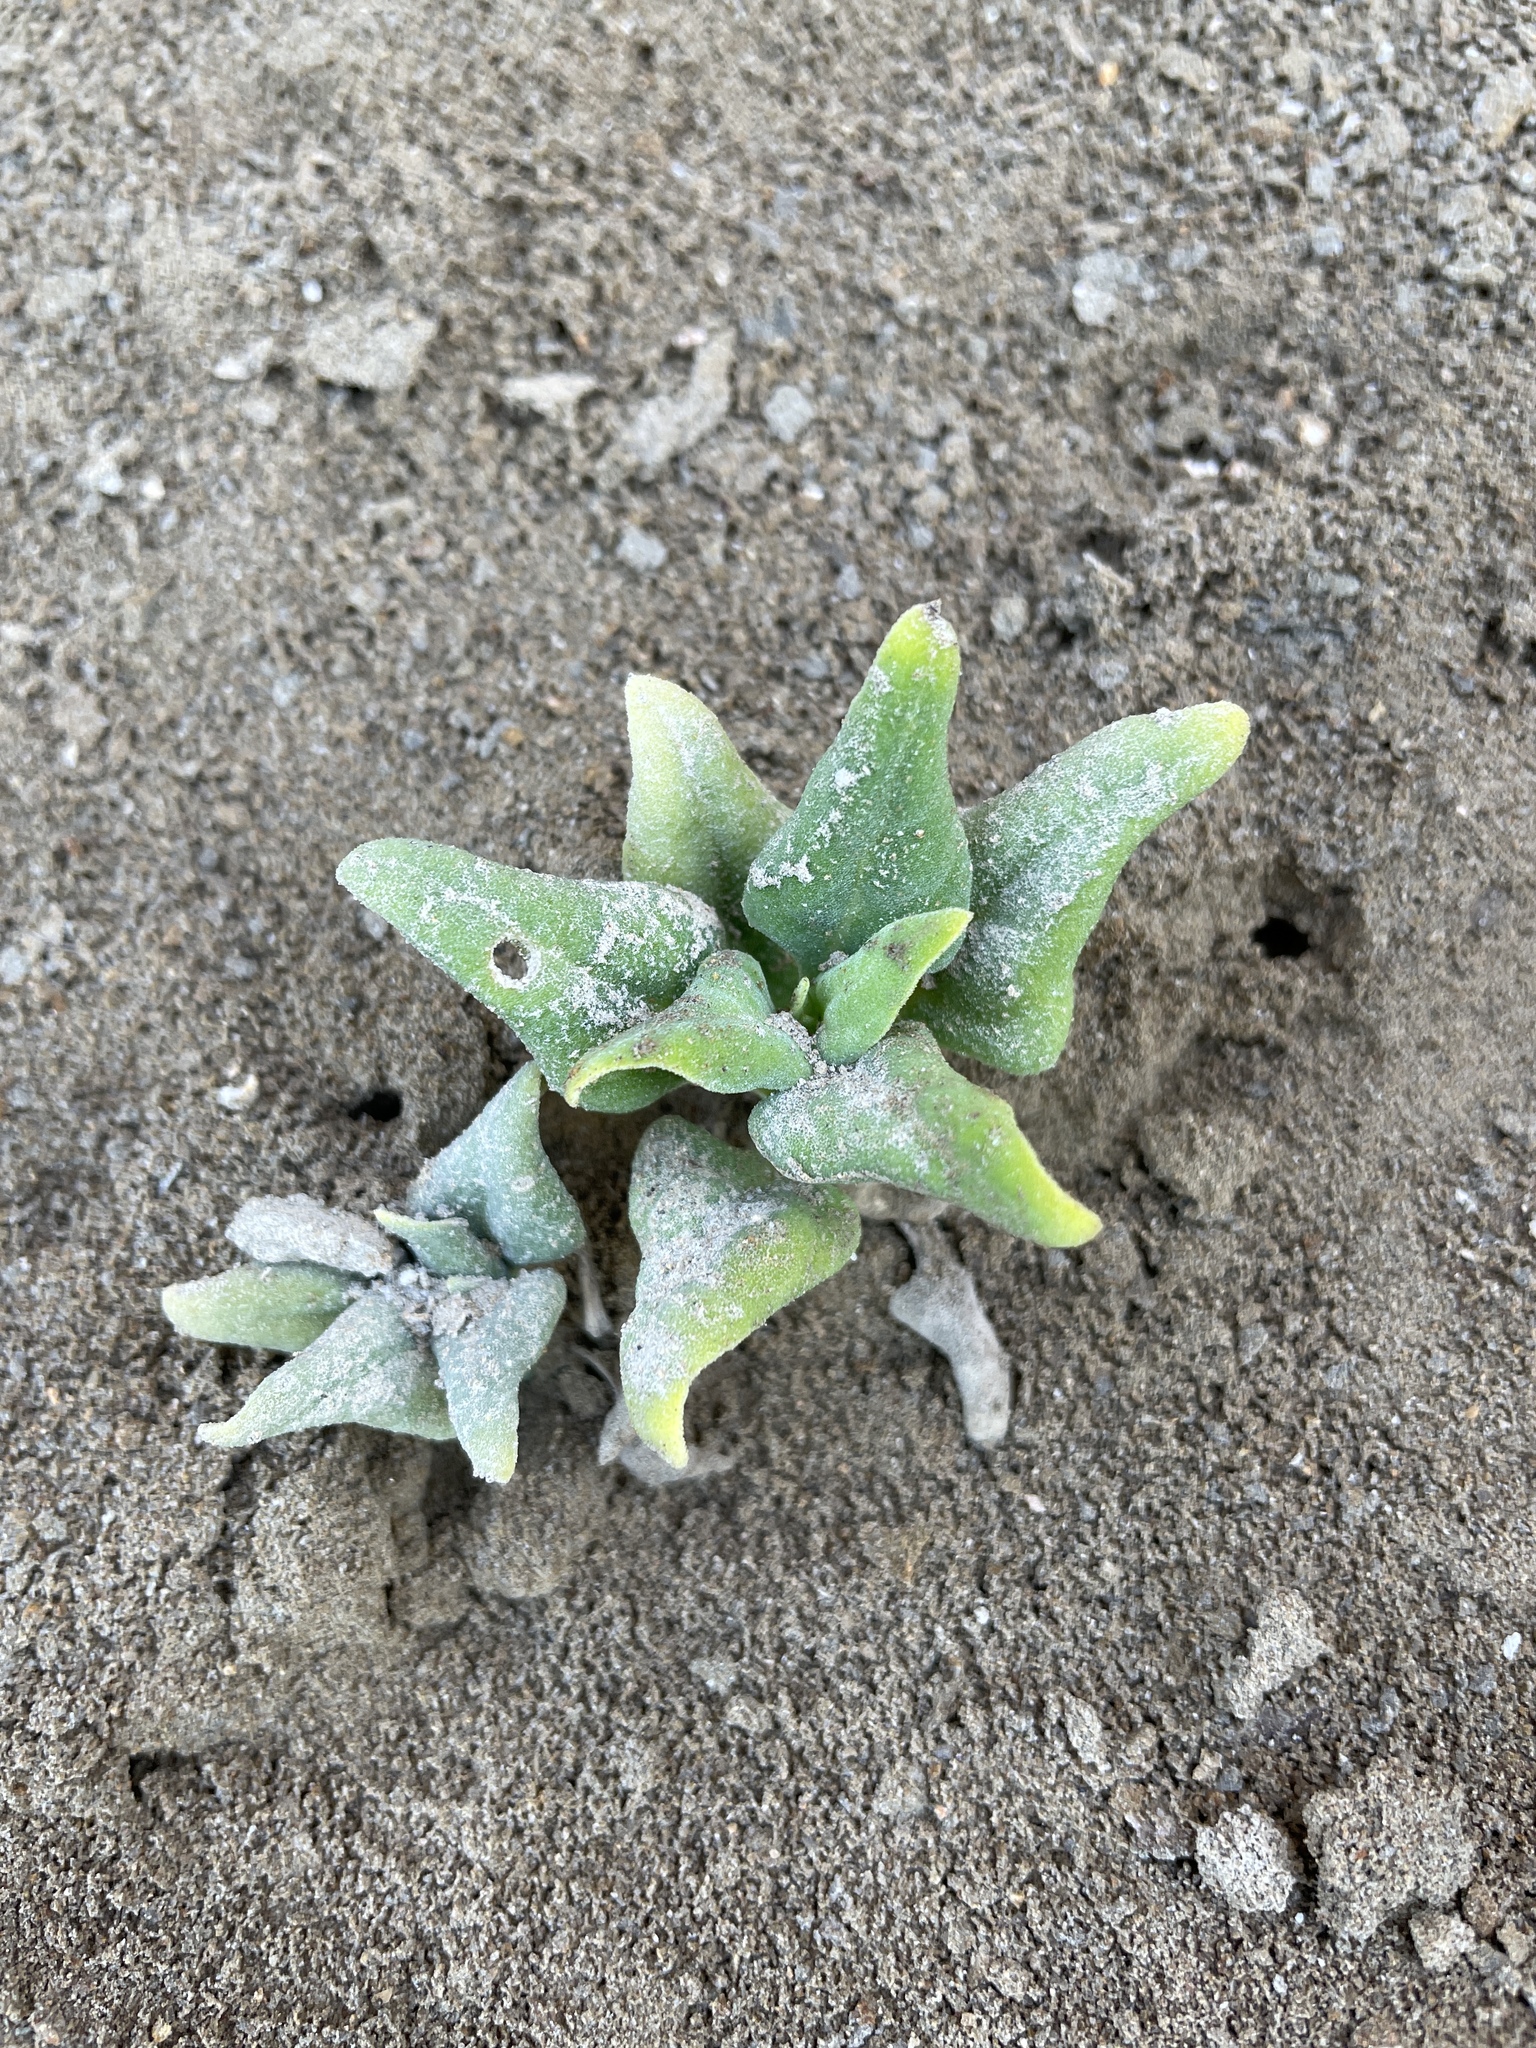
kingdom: Plantae
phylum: Tracheophyta
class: Magnoliopsida
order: Caryophyllales
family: Aizoaceae
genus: Tetragonia
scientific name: Tetragonia tetragonoides
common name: New zealand-spinach
